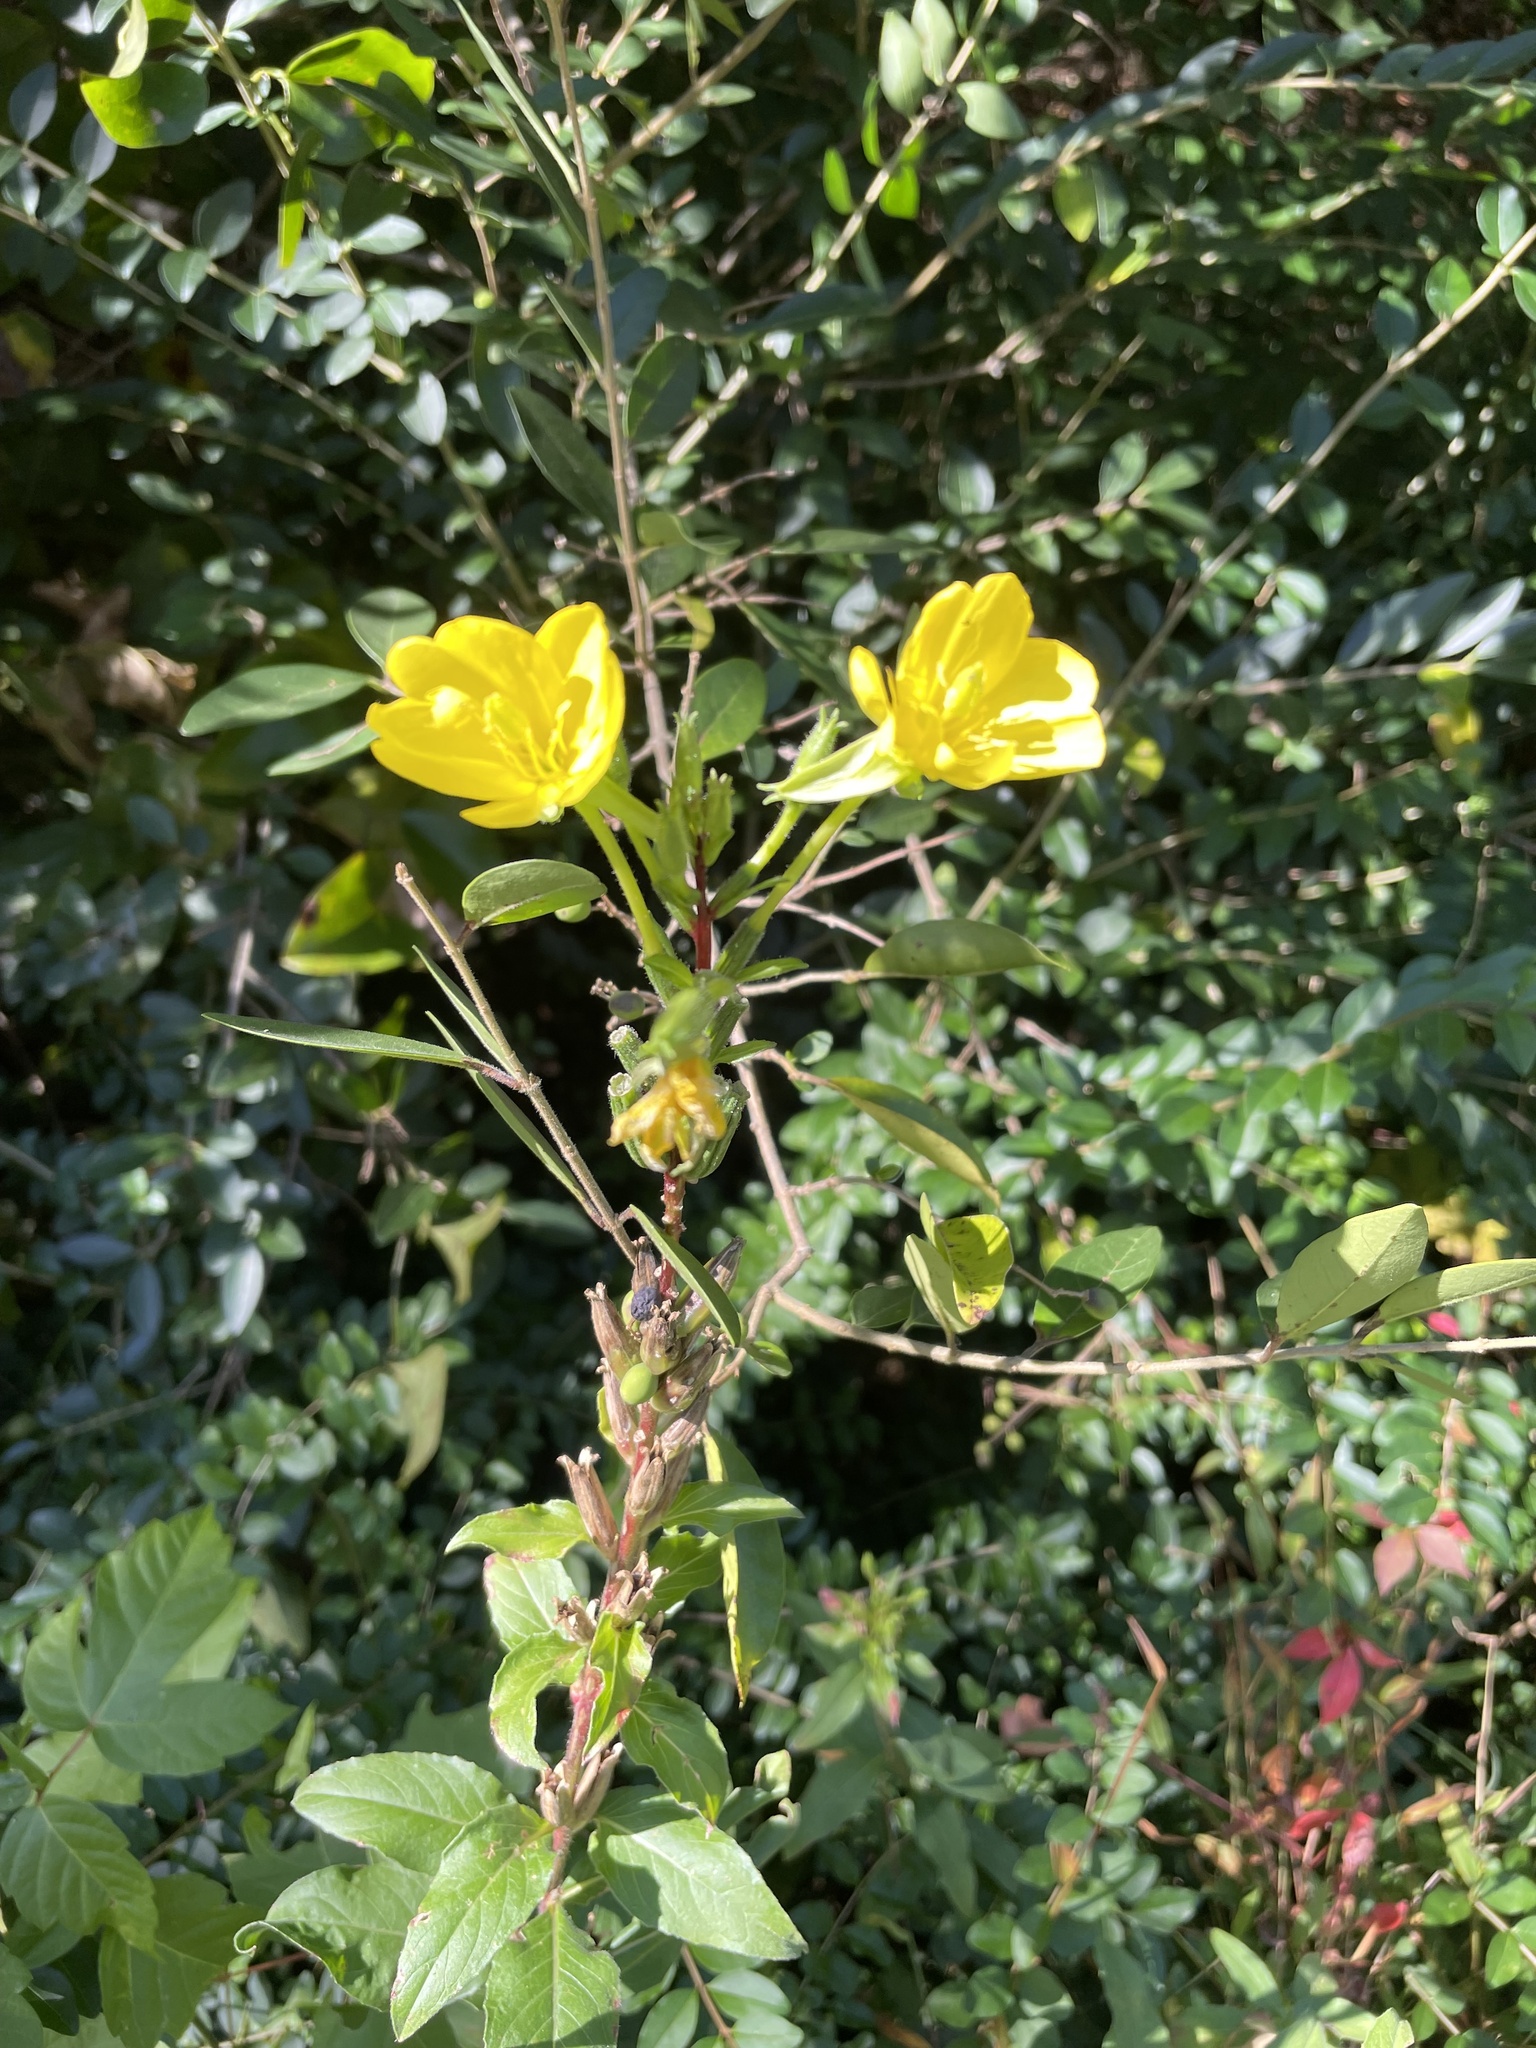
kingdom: Plantae
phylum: Tracheophyta
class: Magnoliopsida
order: Myrtales
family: Onagraceae
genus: Oenothera
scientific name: Oenothera biennis
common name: Common evening-primrose
